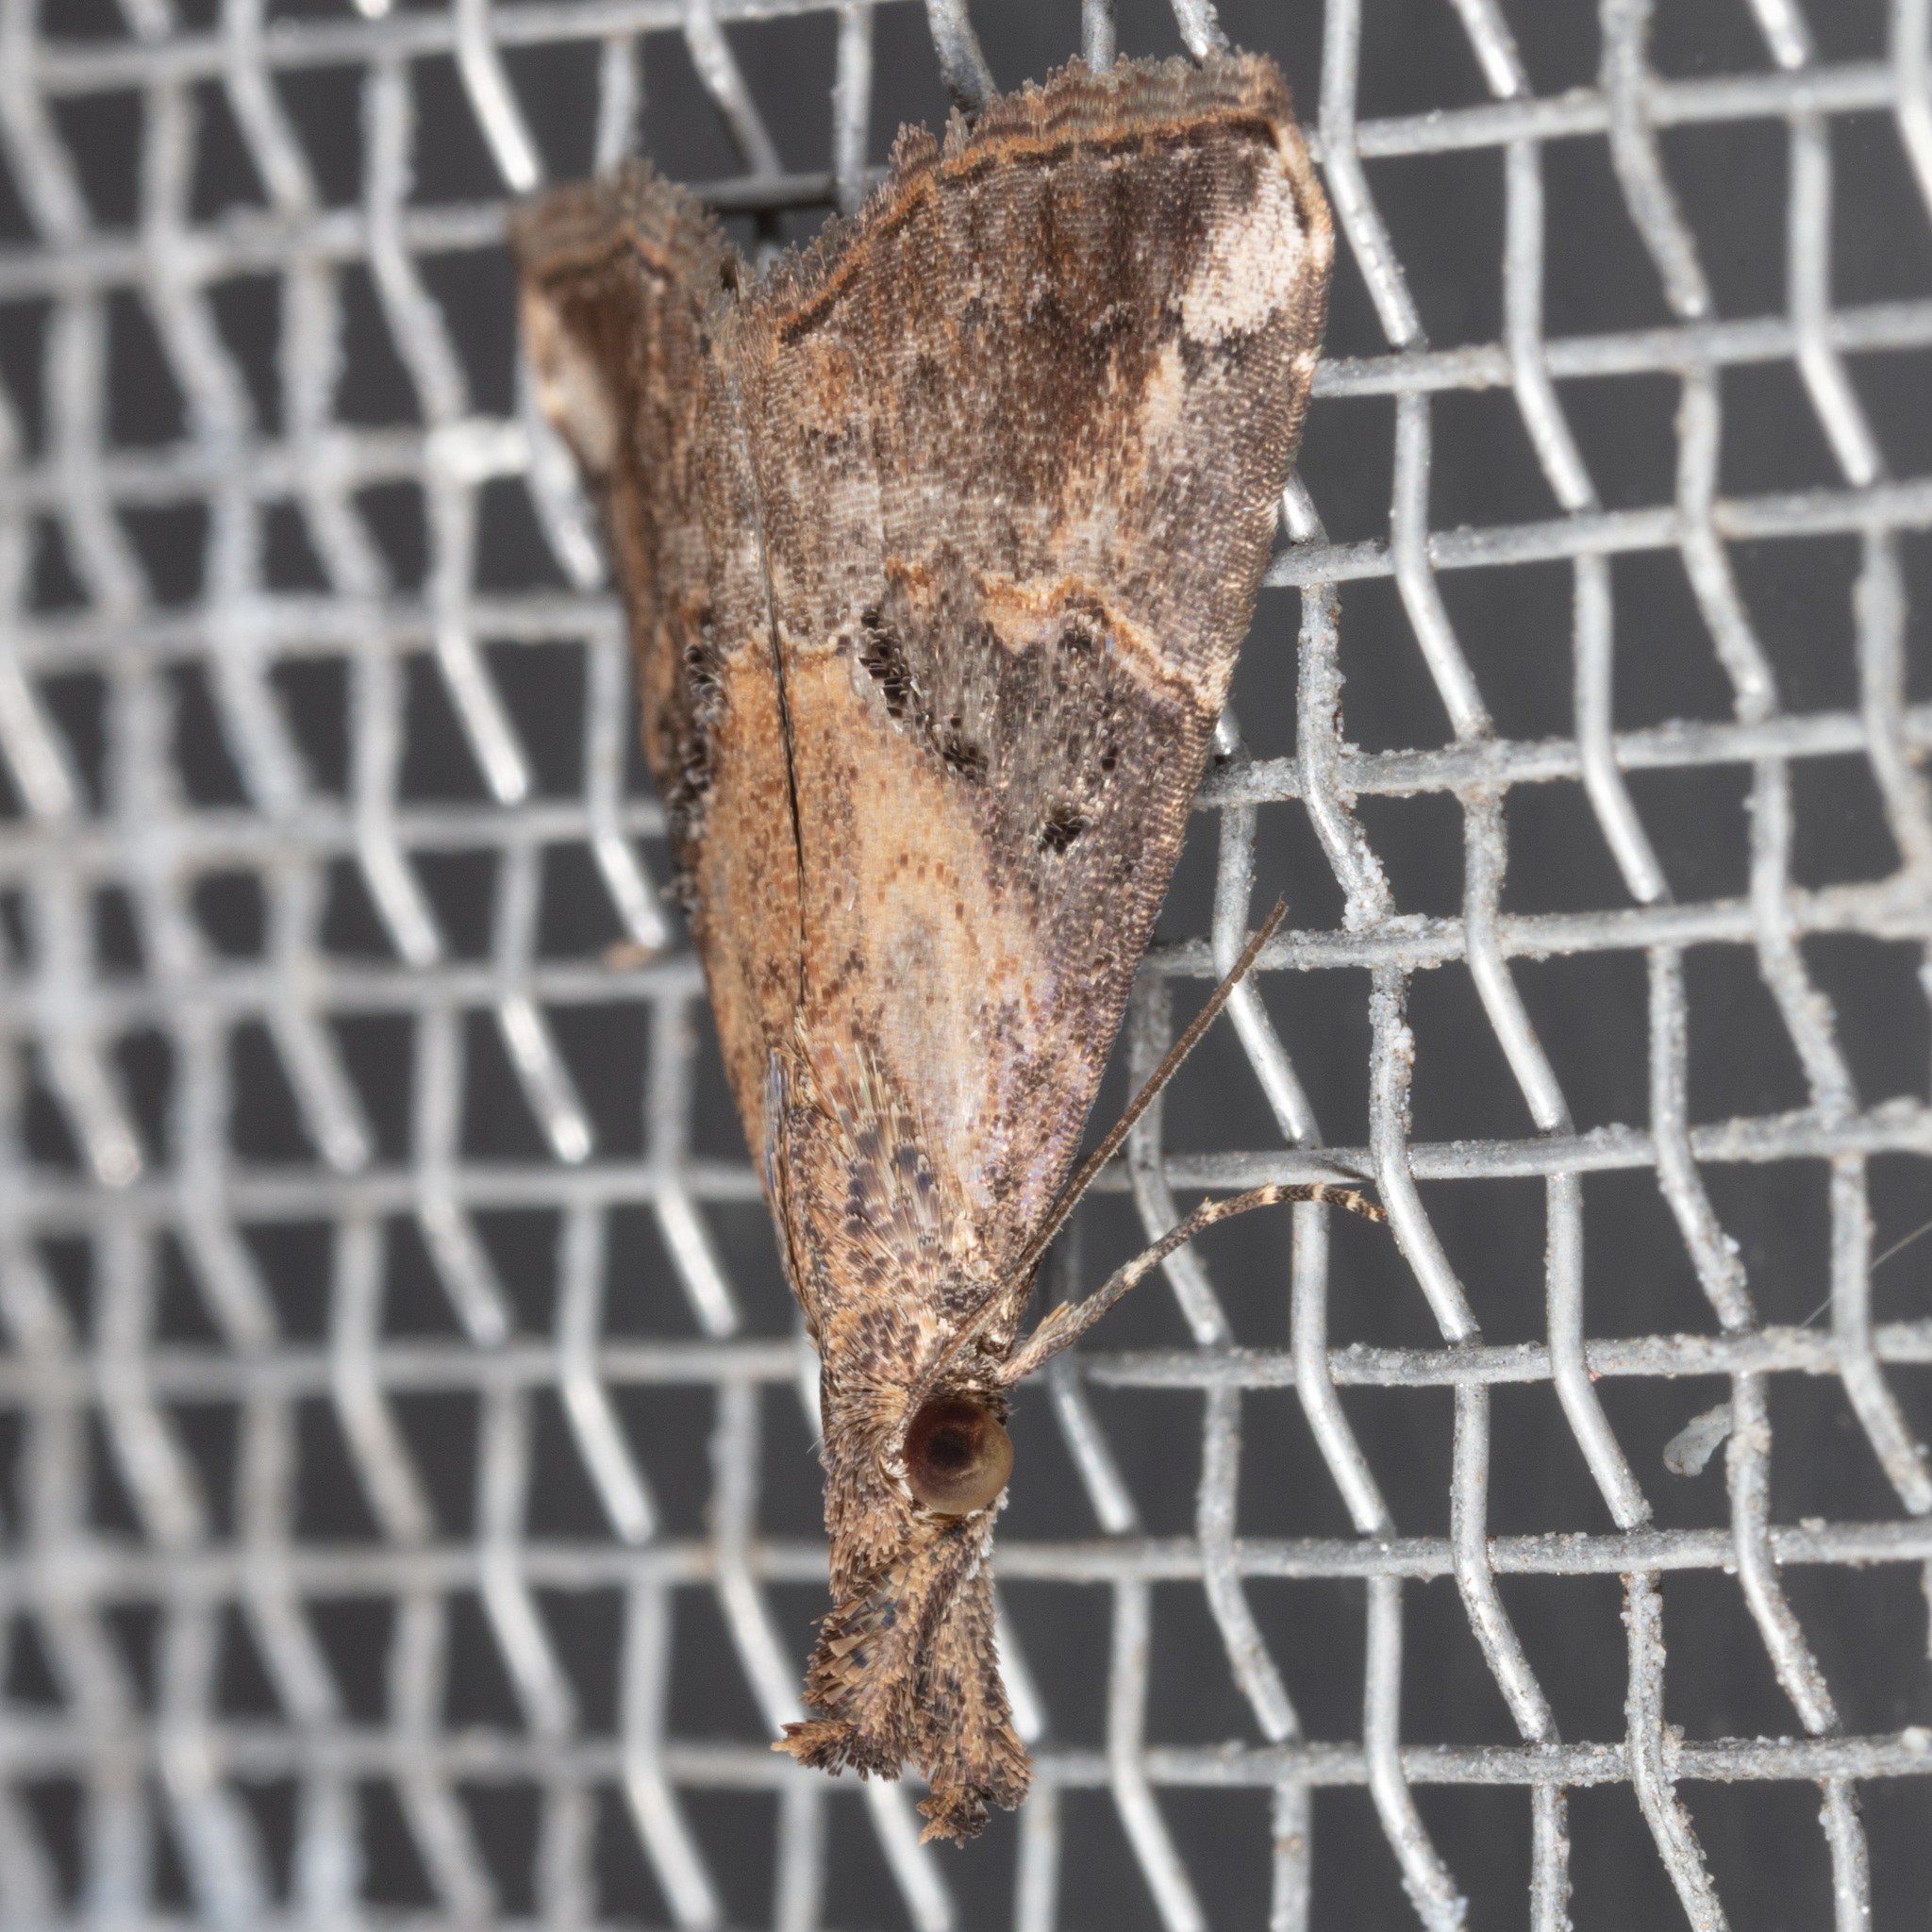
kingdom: Animalia
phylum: Arthropoda
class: Insecta
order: Lepidoptera
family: Erebidae
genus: Hypena
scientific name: Hypena minualis
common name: Sooty snout
